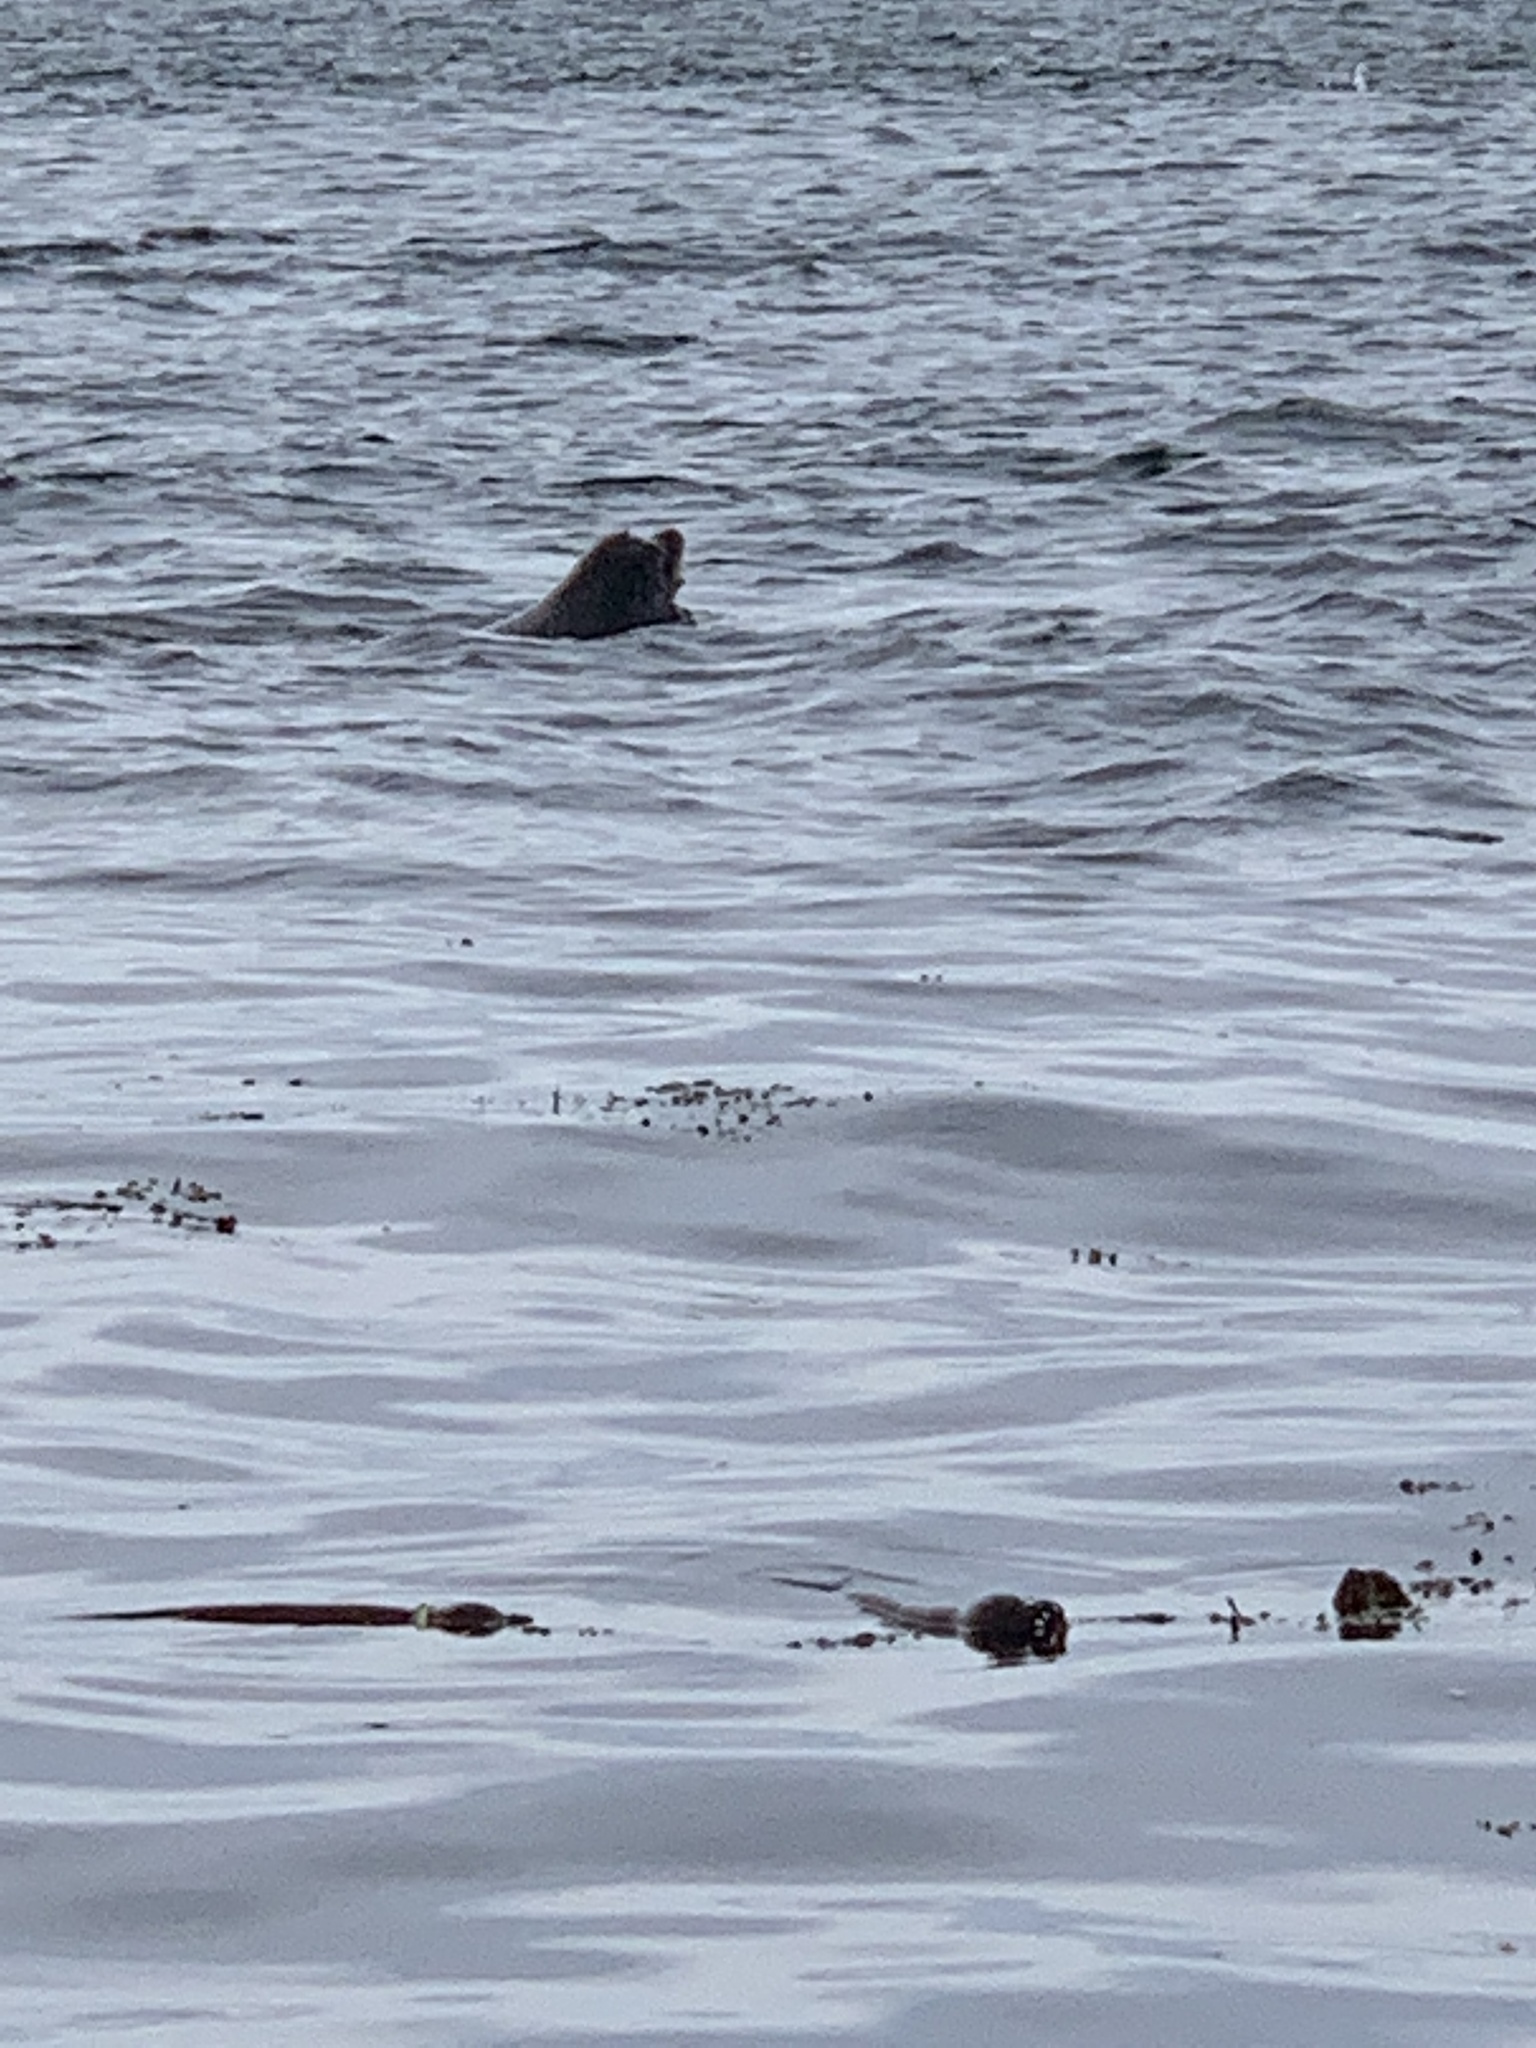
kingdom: Animalia
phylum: Chordata
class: Mammalia
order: Carnivora
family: Otariidae
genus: Zalophus
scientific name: Zalophus californianus
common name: California sea lion
